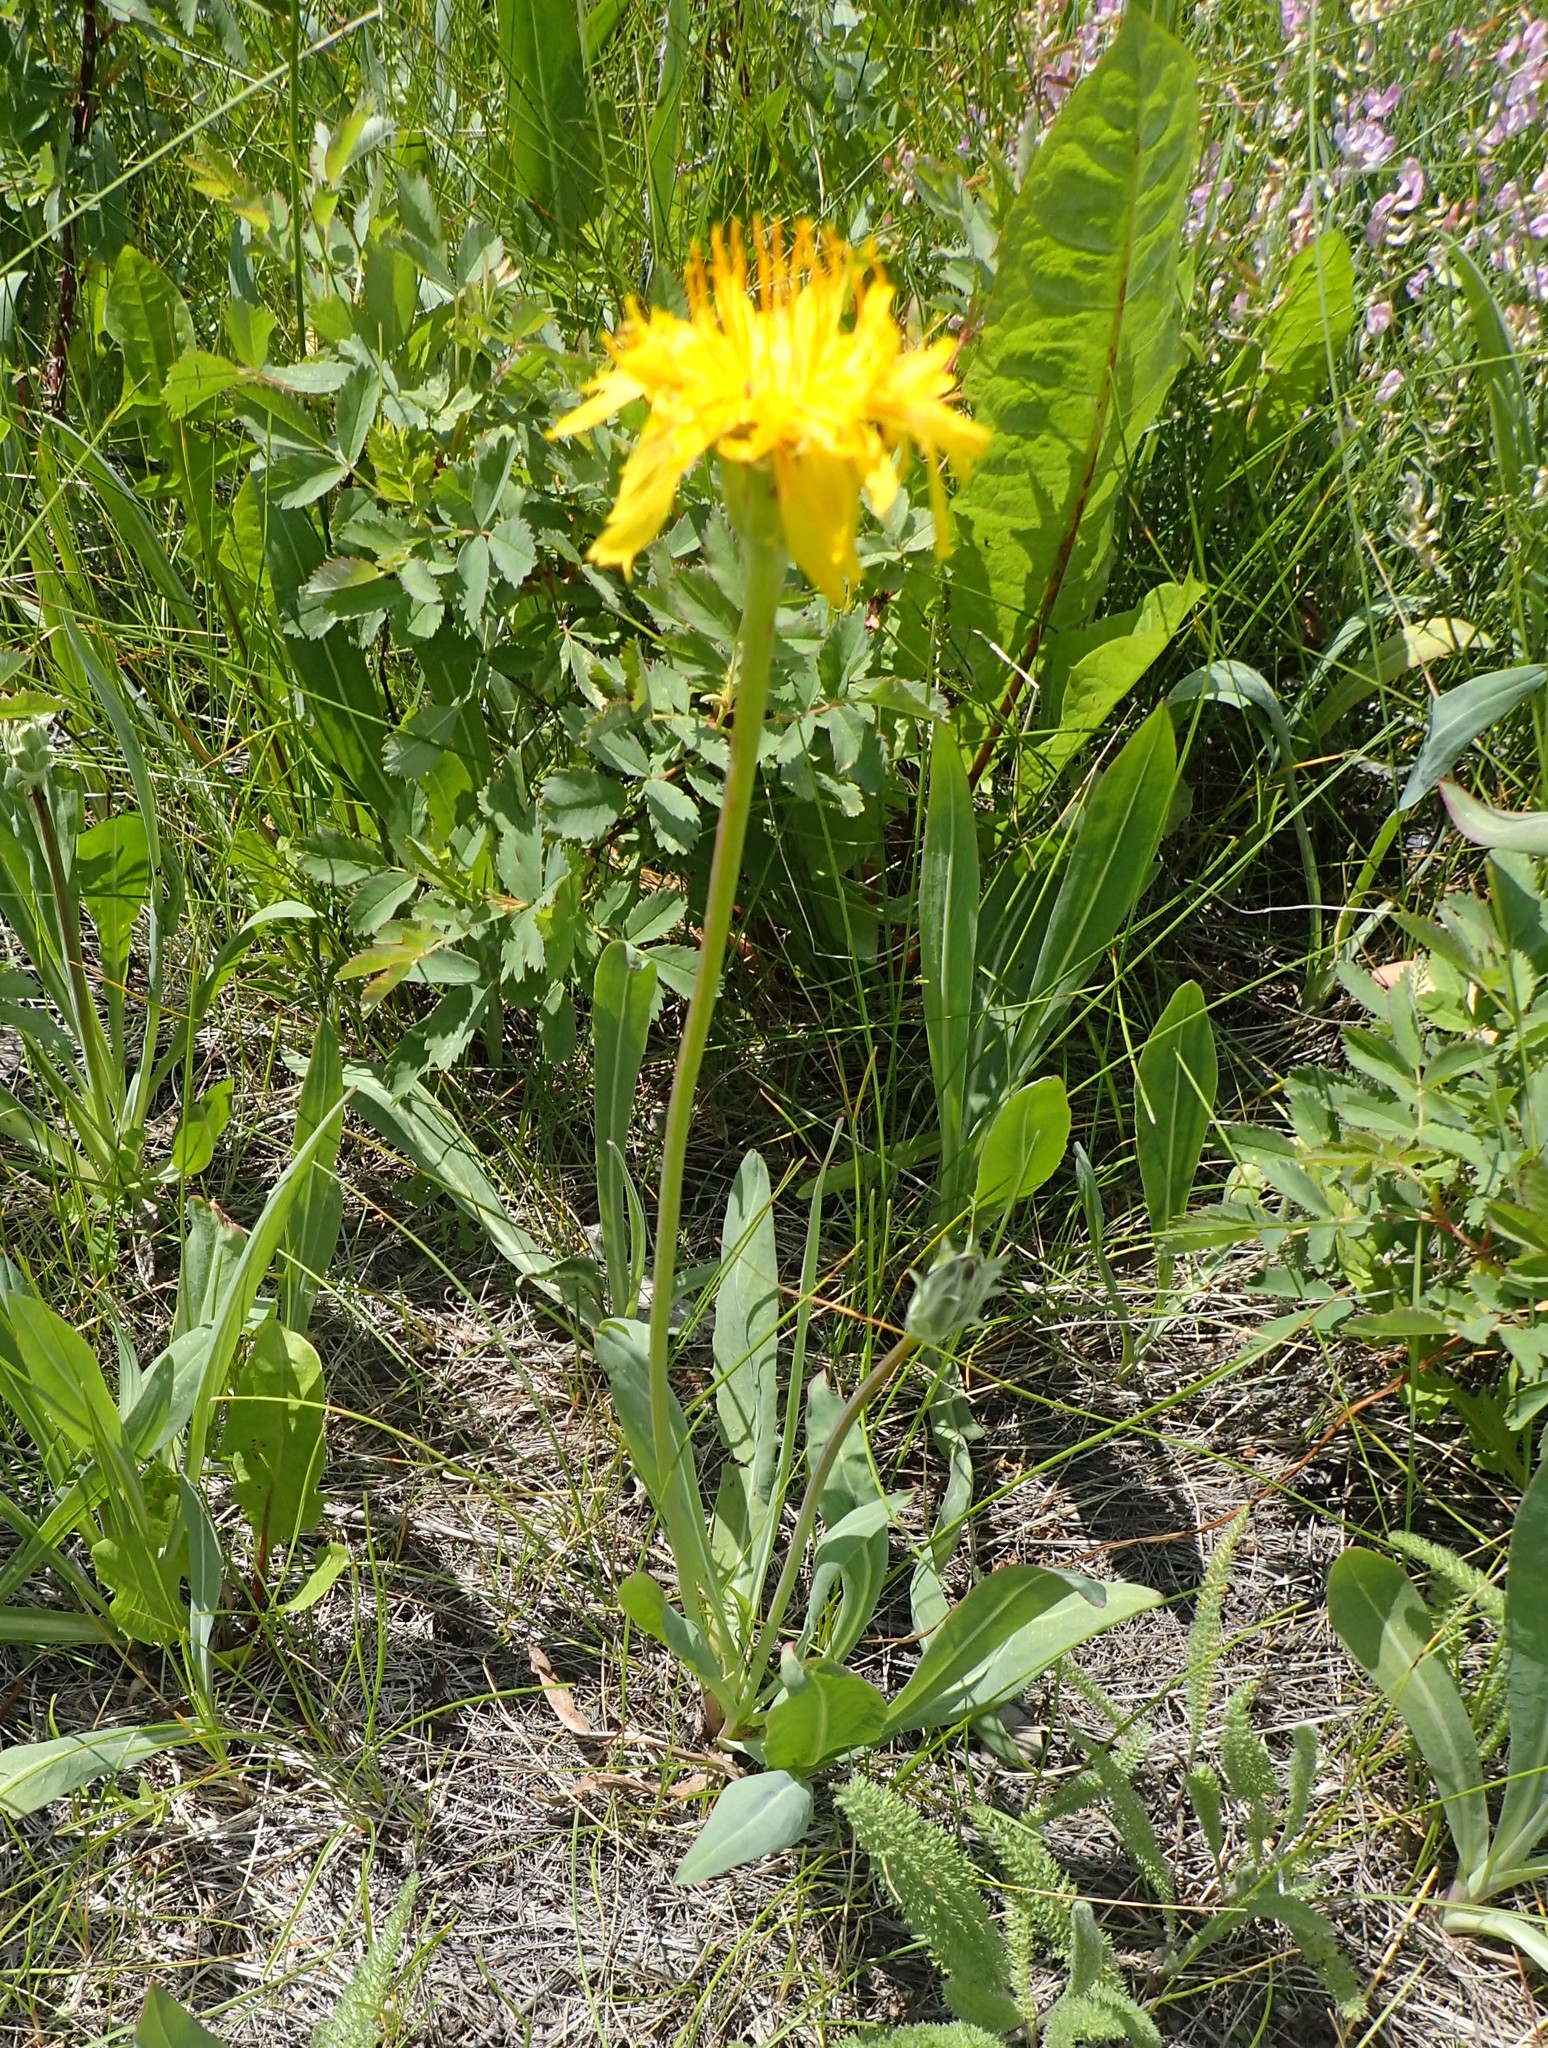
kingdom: Plantae
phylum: Tracheophyta
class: Magnoliopsida
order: Asterales
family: Asteraceae
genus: Agoseris
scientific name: Agoseris glauca
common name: Prairie agoseris
